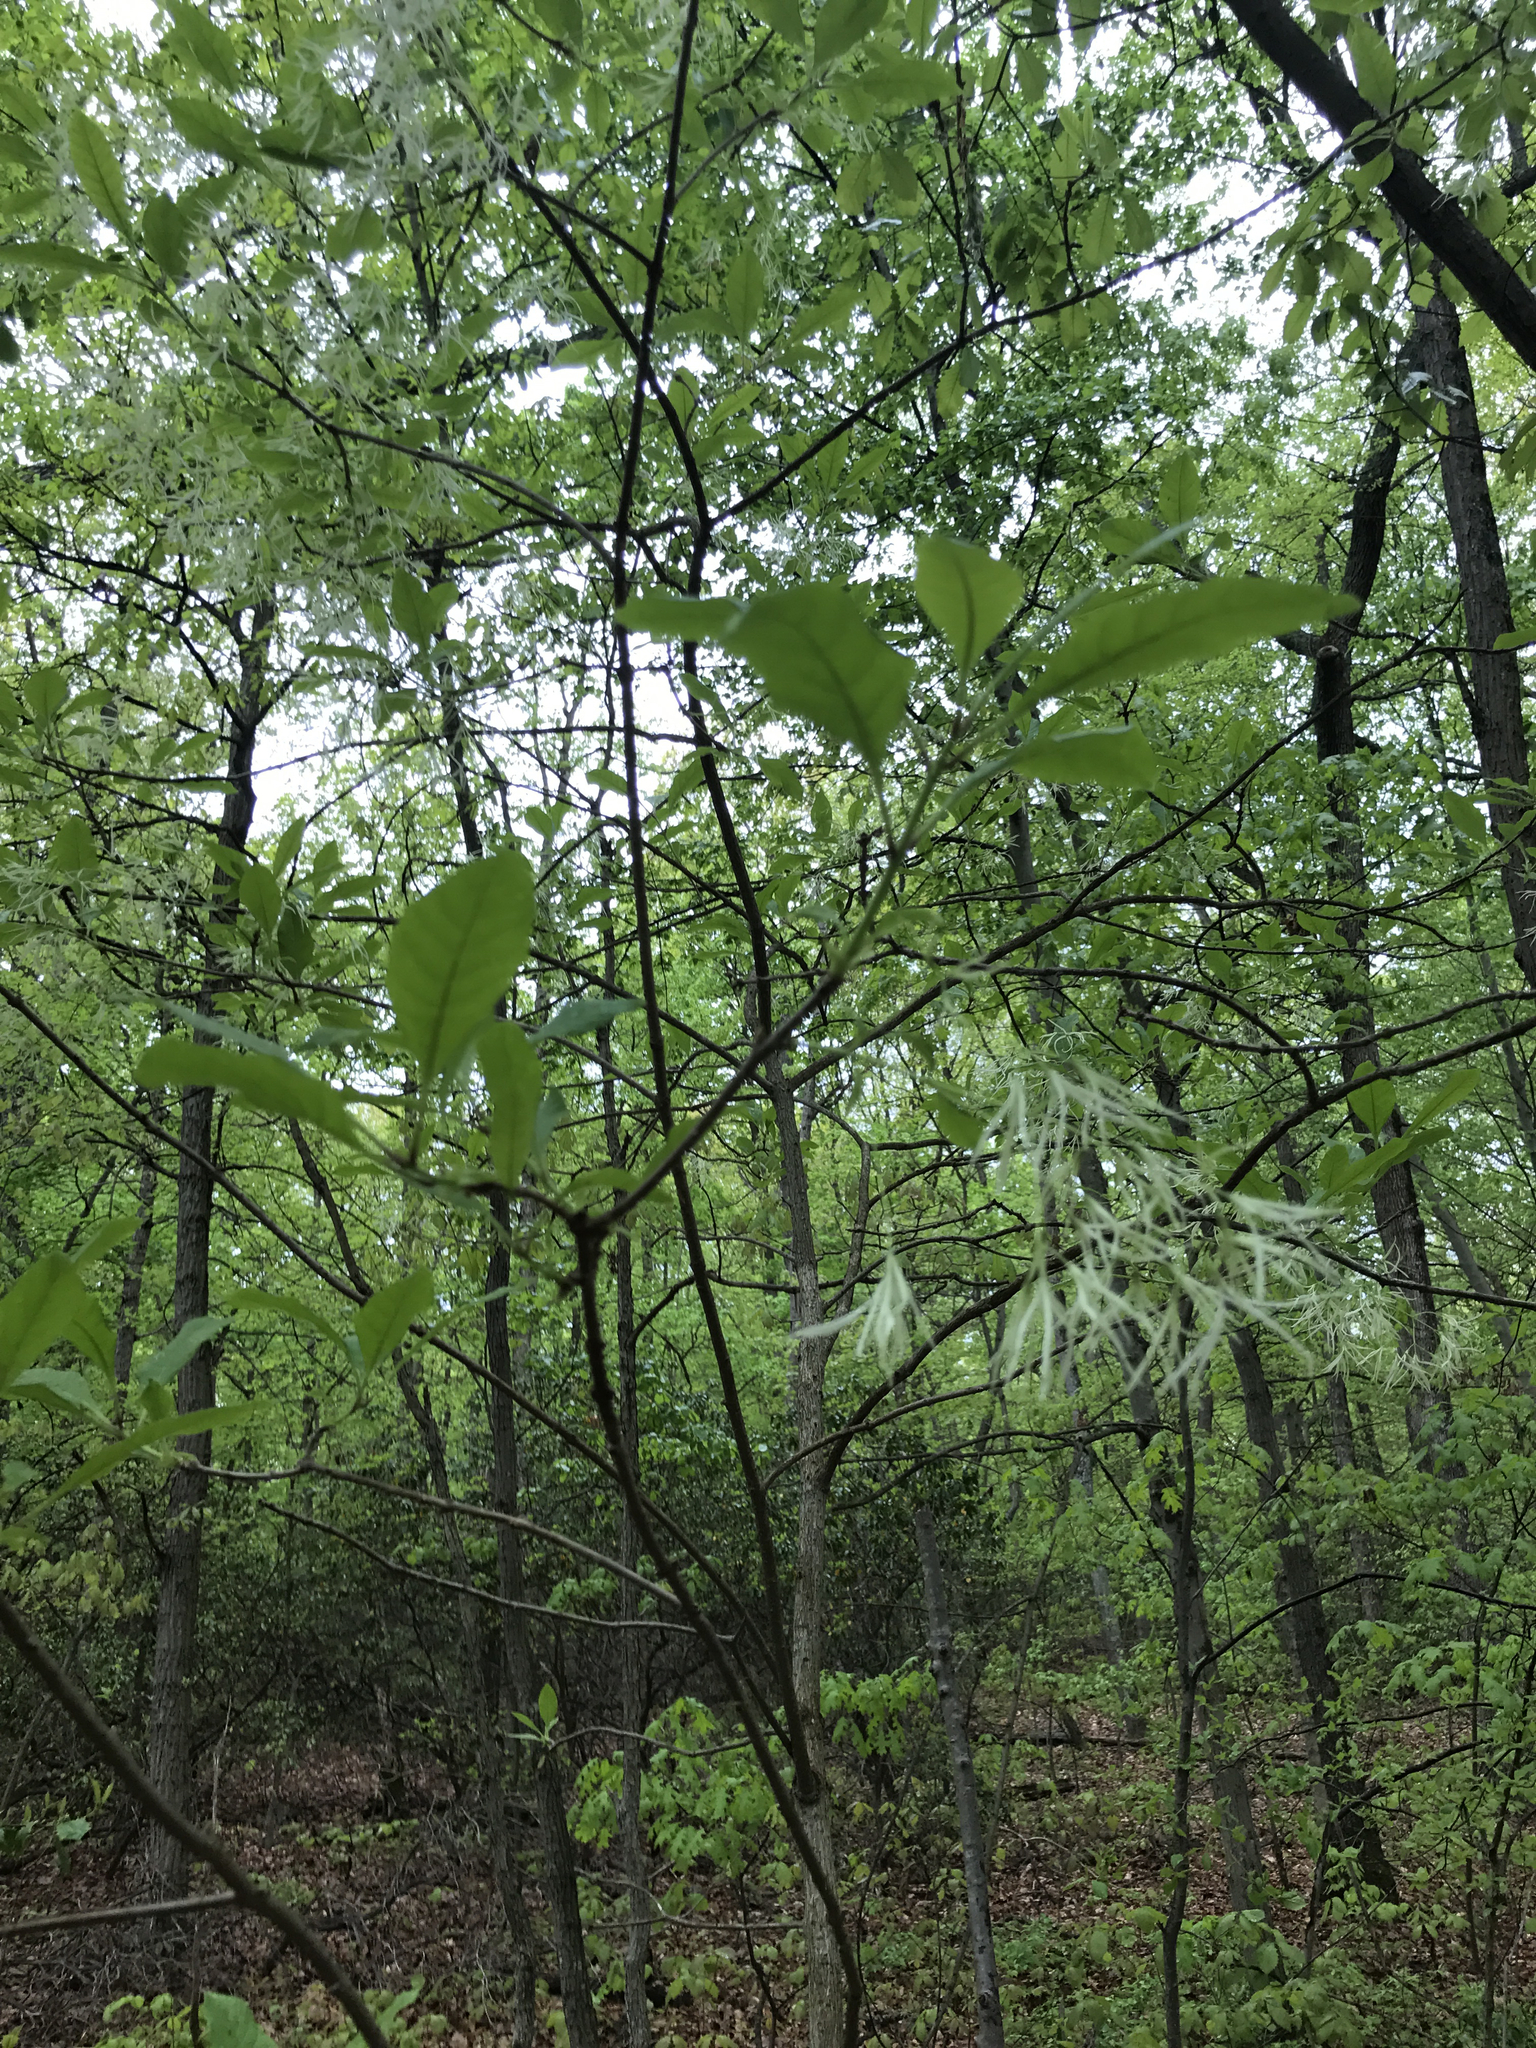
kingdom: Plantae
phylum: Tracheophyta
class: Magnoliopsida
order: Lamiales
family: Oleaceae
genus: Chionanthus
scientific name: Chionanthus virginicus
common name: American fringetree
